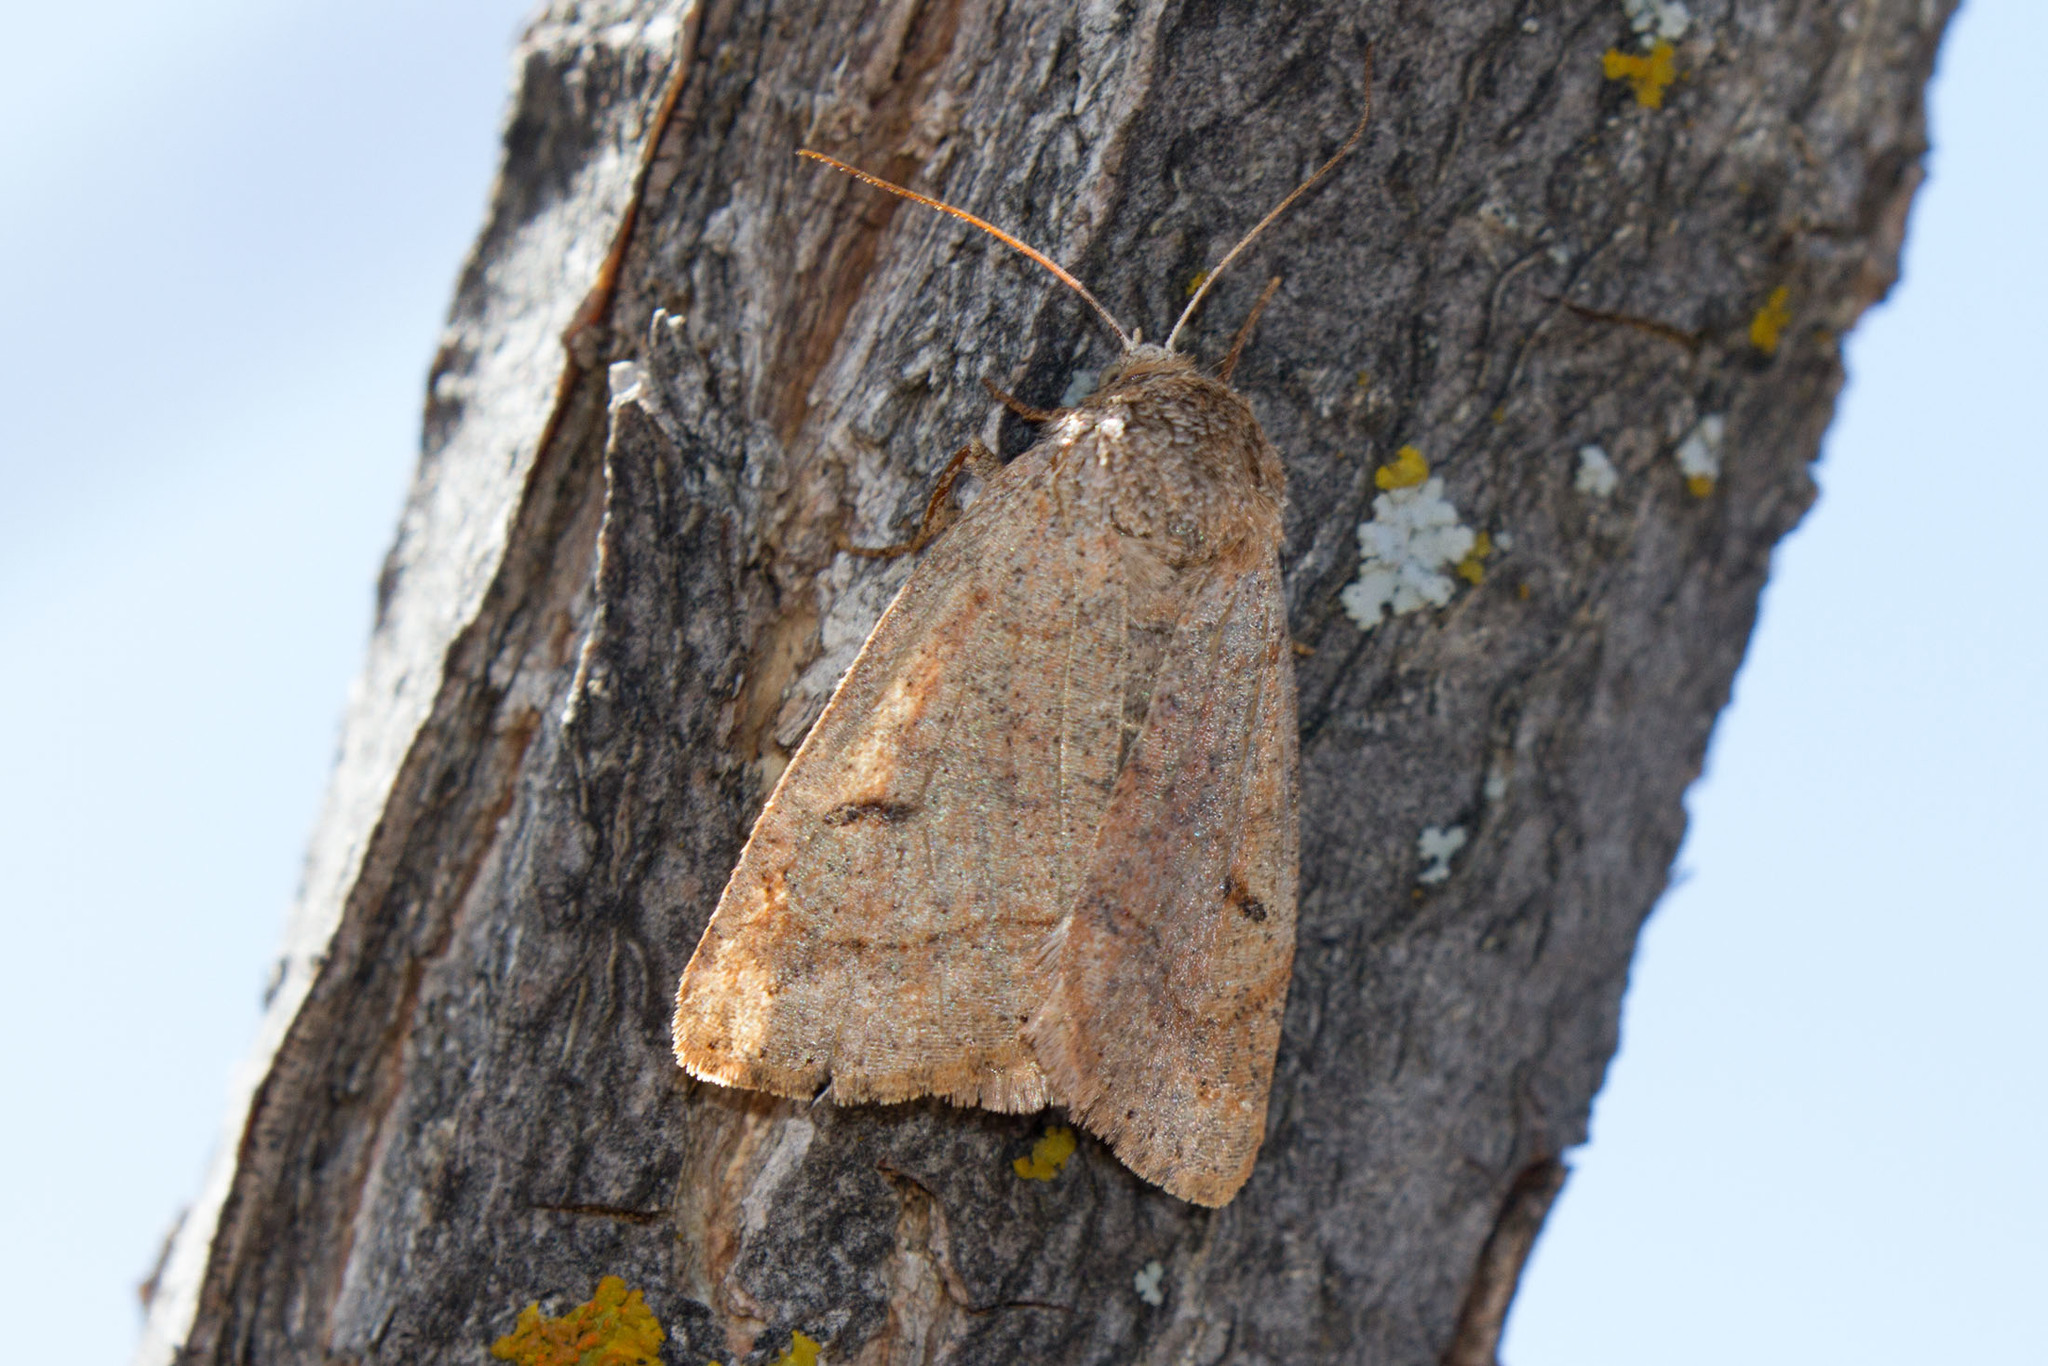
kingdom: Animalia
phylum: Arthropoda
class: Insecta
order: Lepidoptera
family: Erebidae
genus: Phoberia
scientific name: Phoberia ingenua
